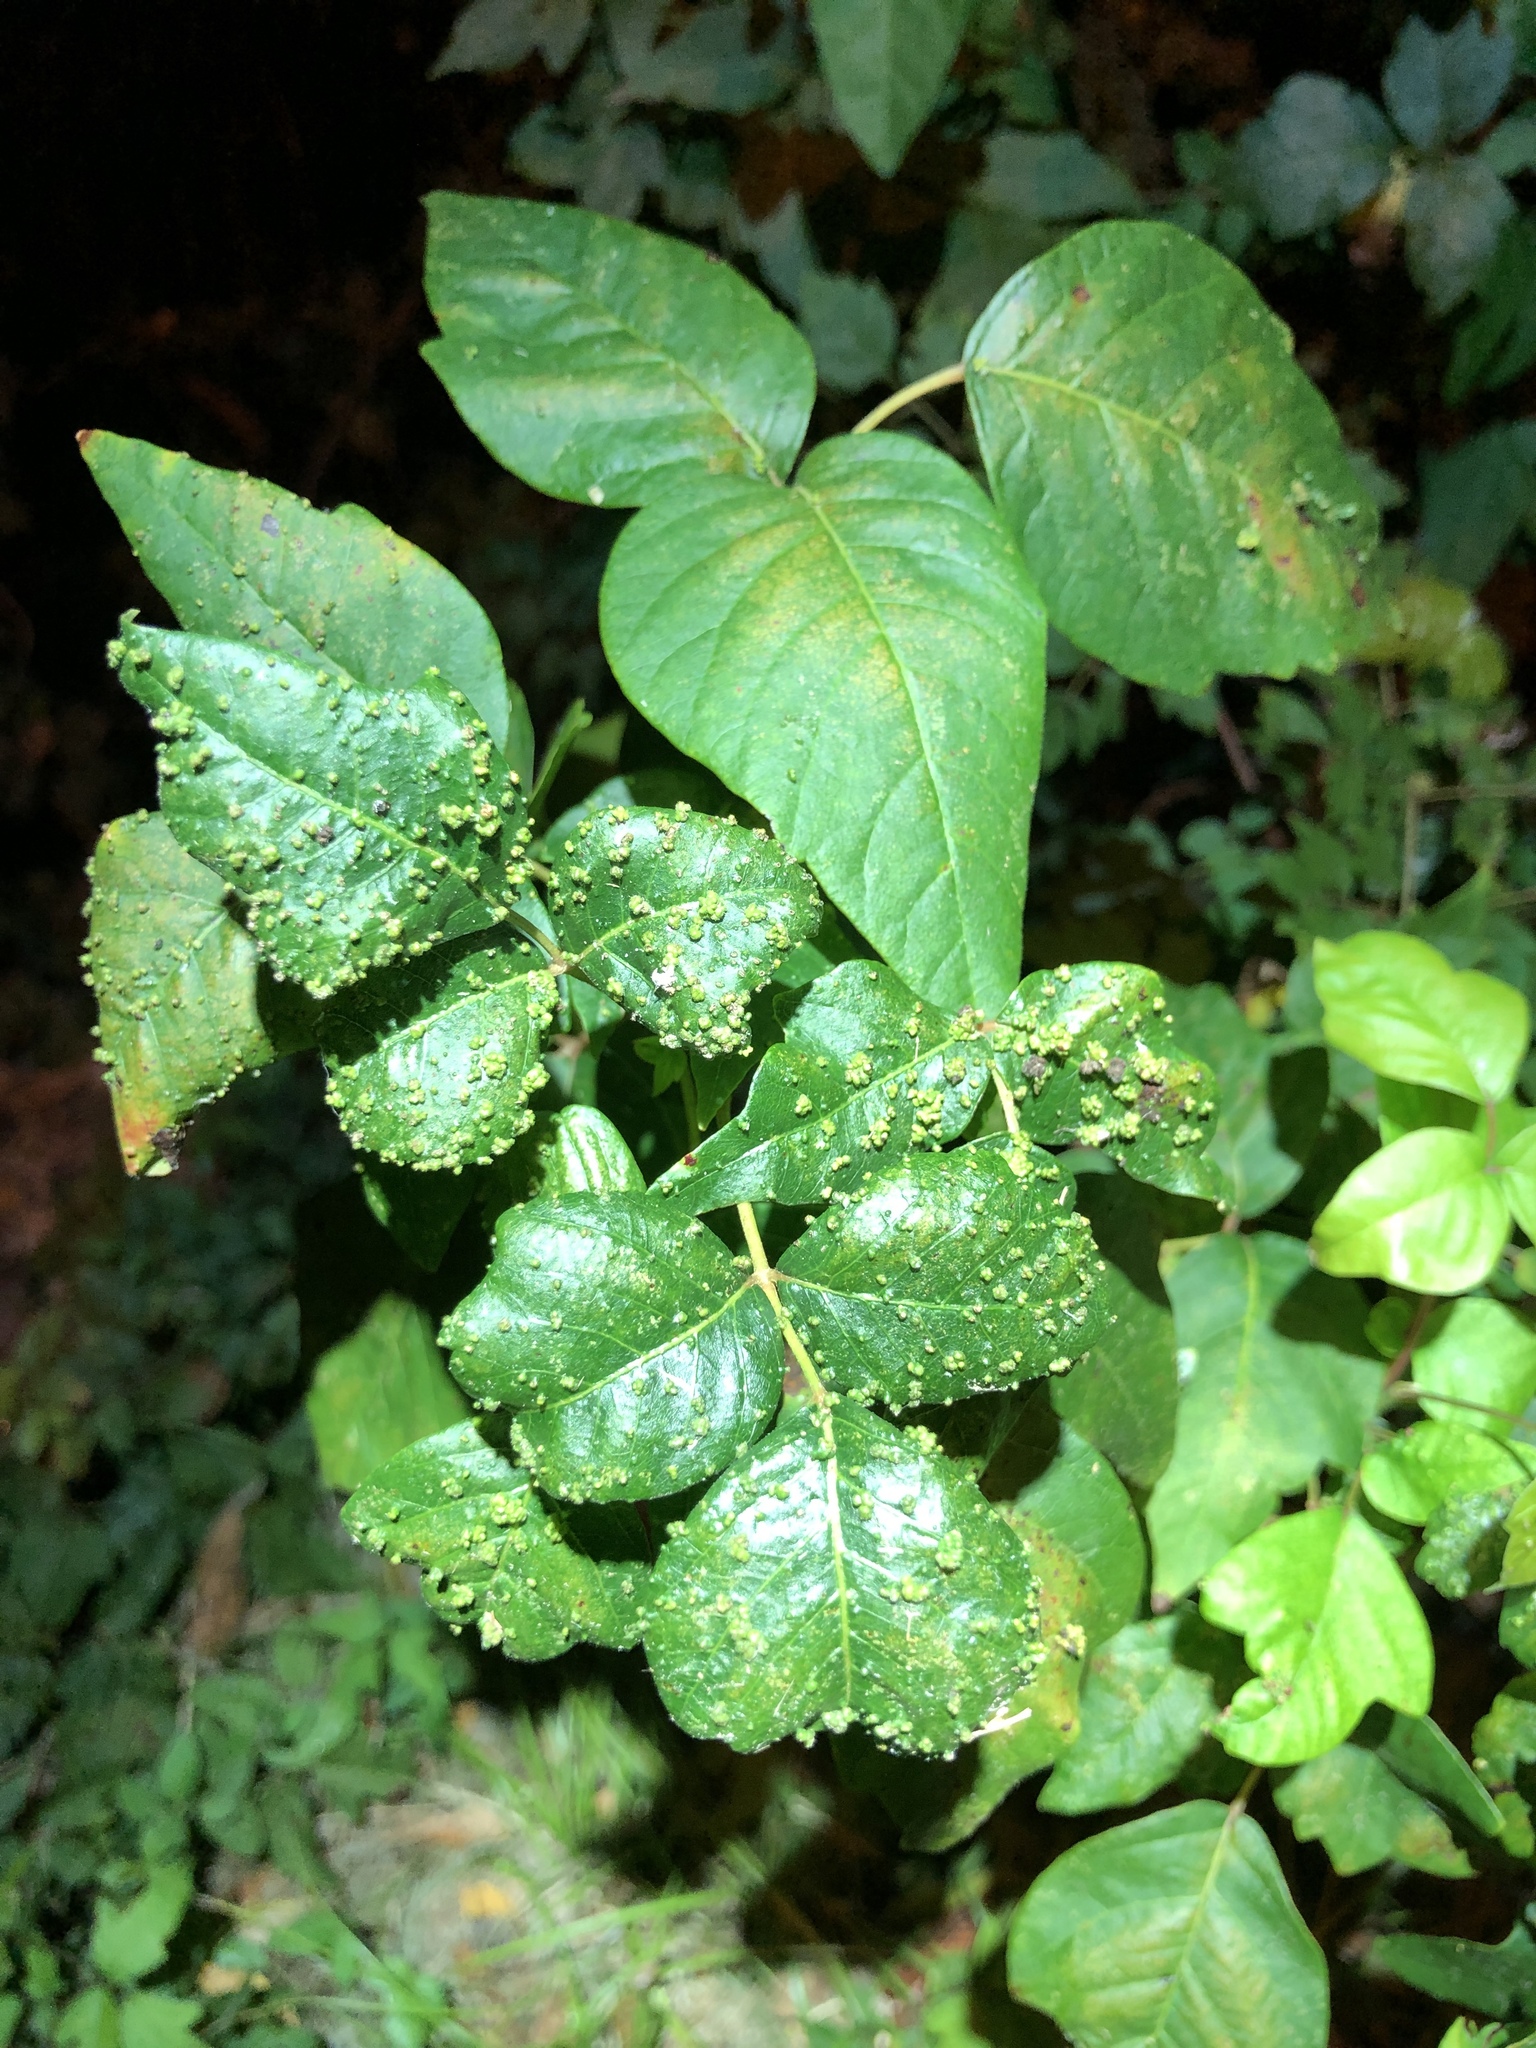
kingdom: Animalia
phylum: Arthropoda
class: Arachnida
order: Trombidiformes
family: Eriophyidae
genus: Aculops
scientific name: Aculops
